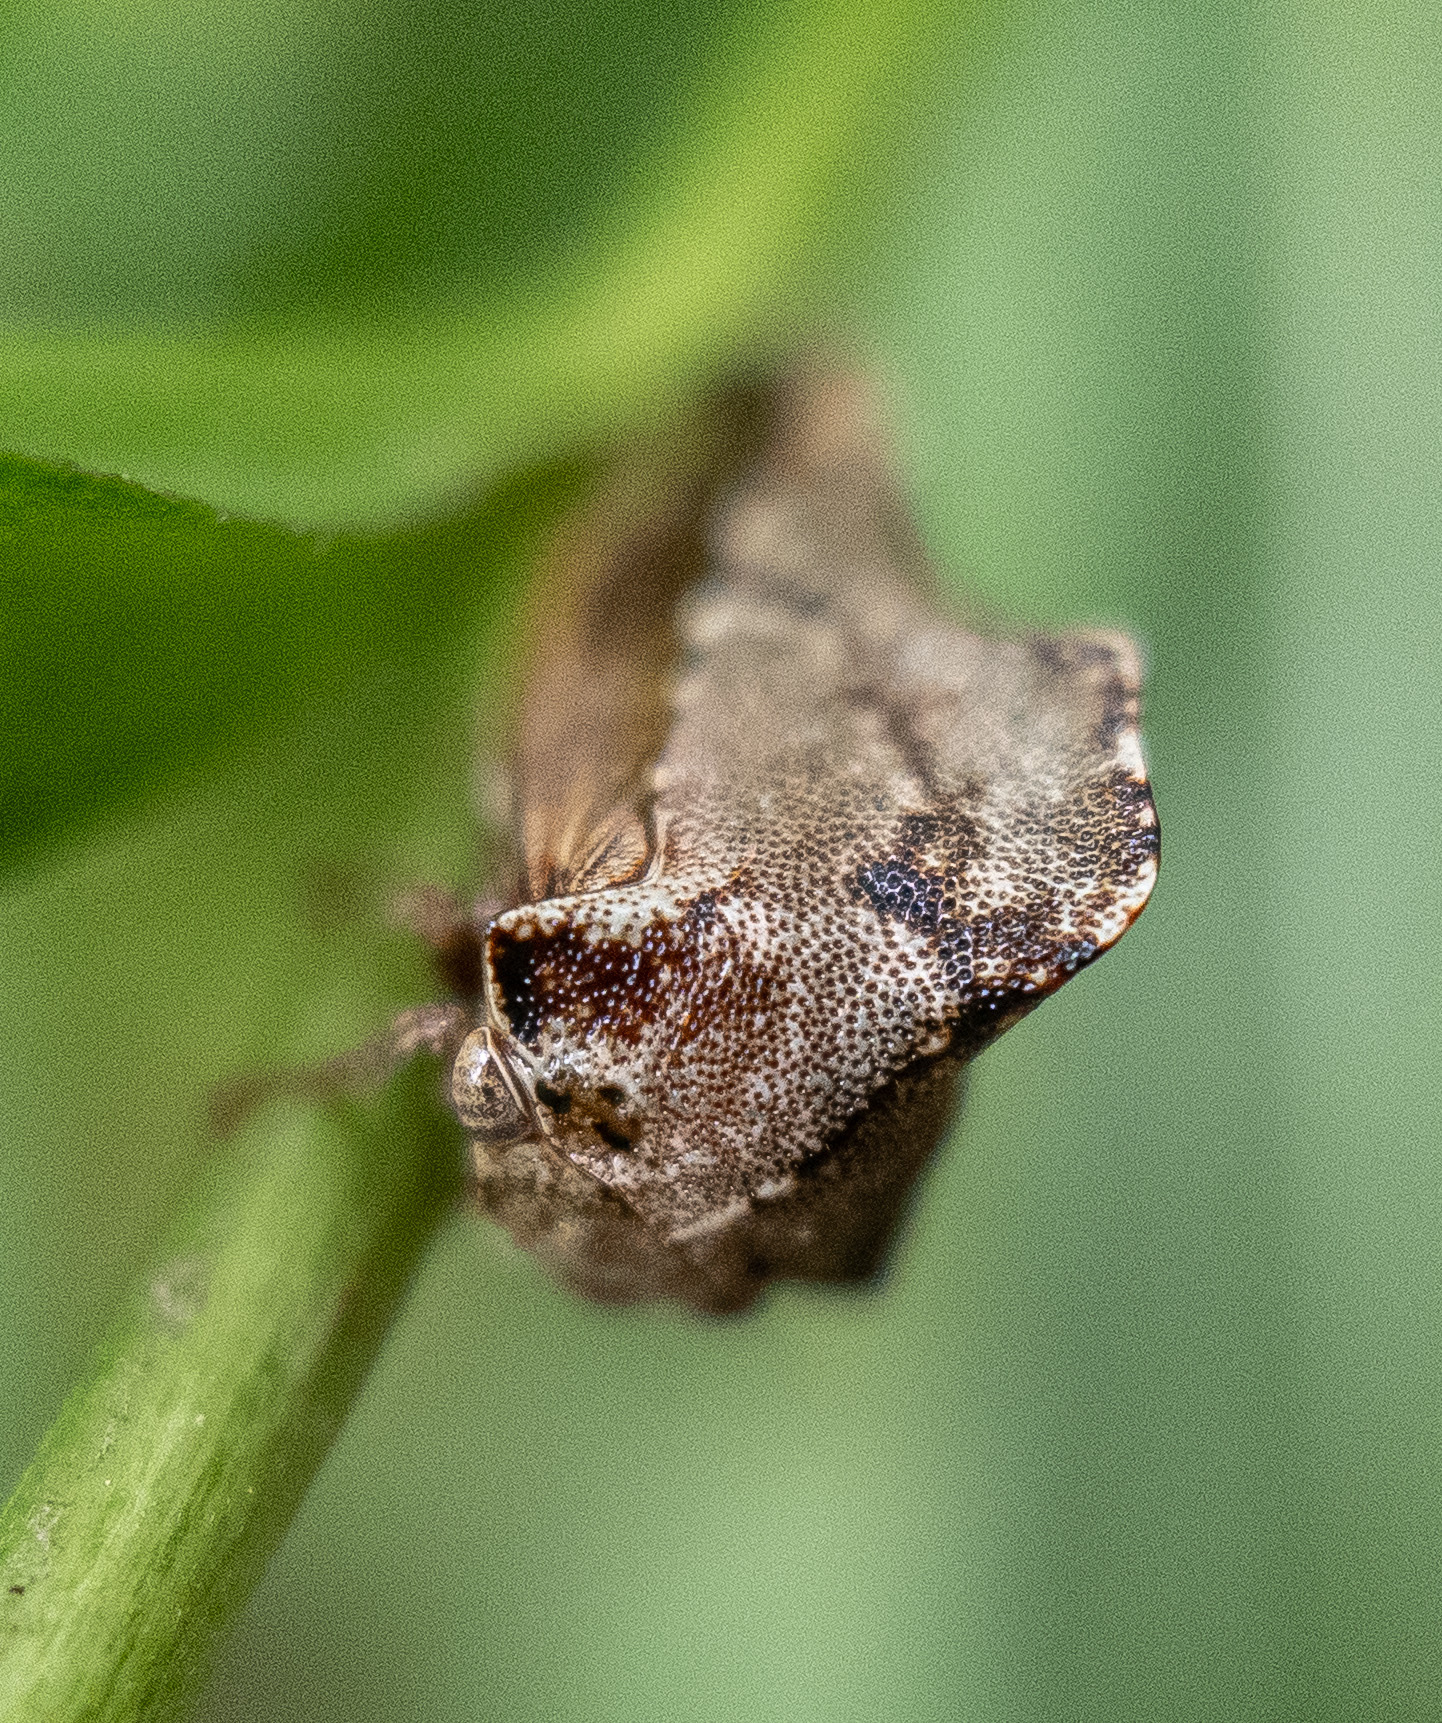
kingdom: Animalia
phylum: Arthropoda
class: Insecta
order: Hemiptera
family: Membracidae
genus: Telamona
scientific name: Telamona ampelopsidis
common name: Virginia creeper treehopper
